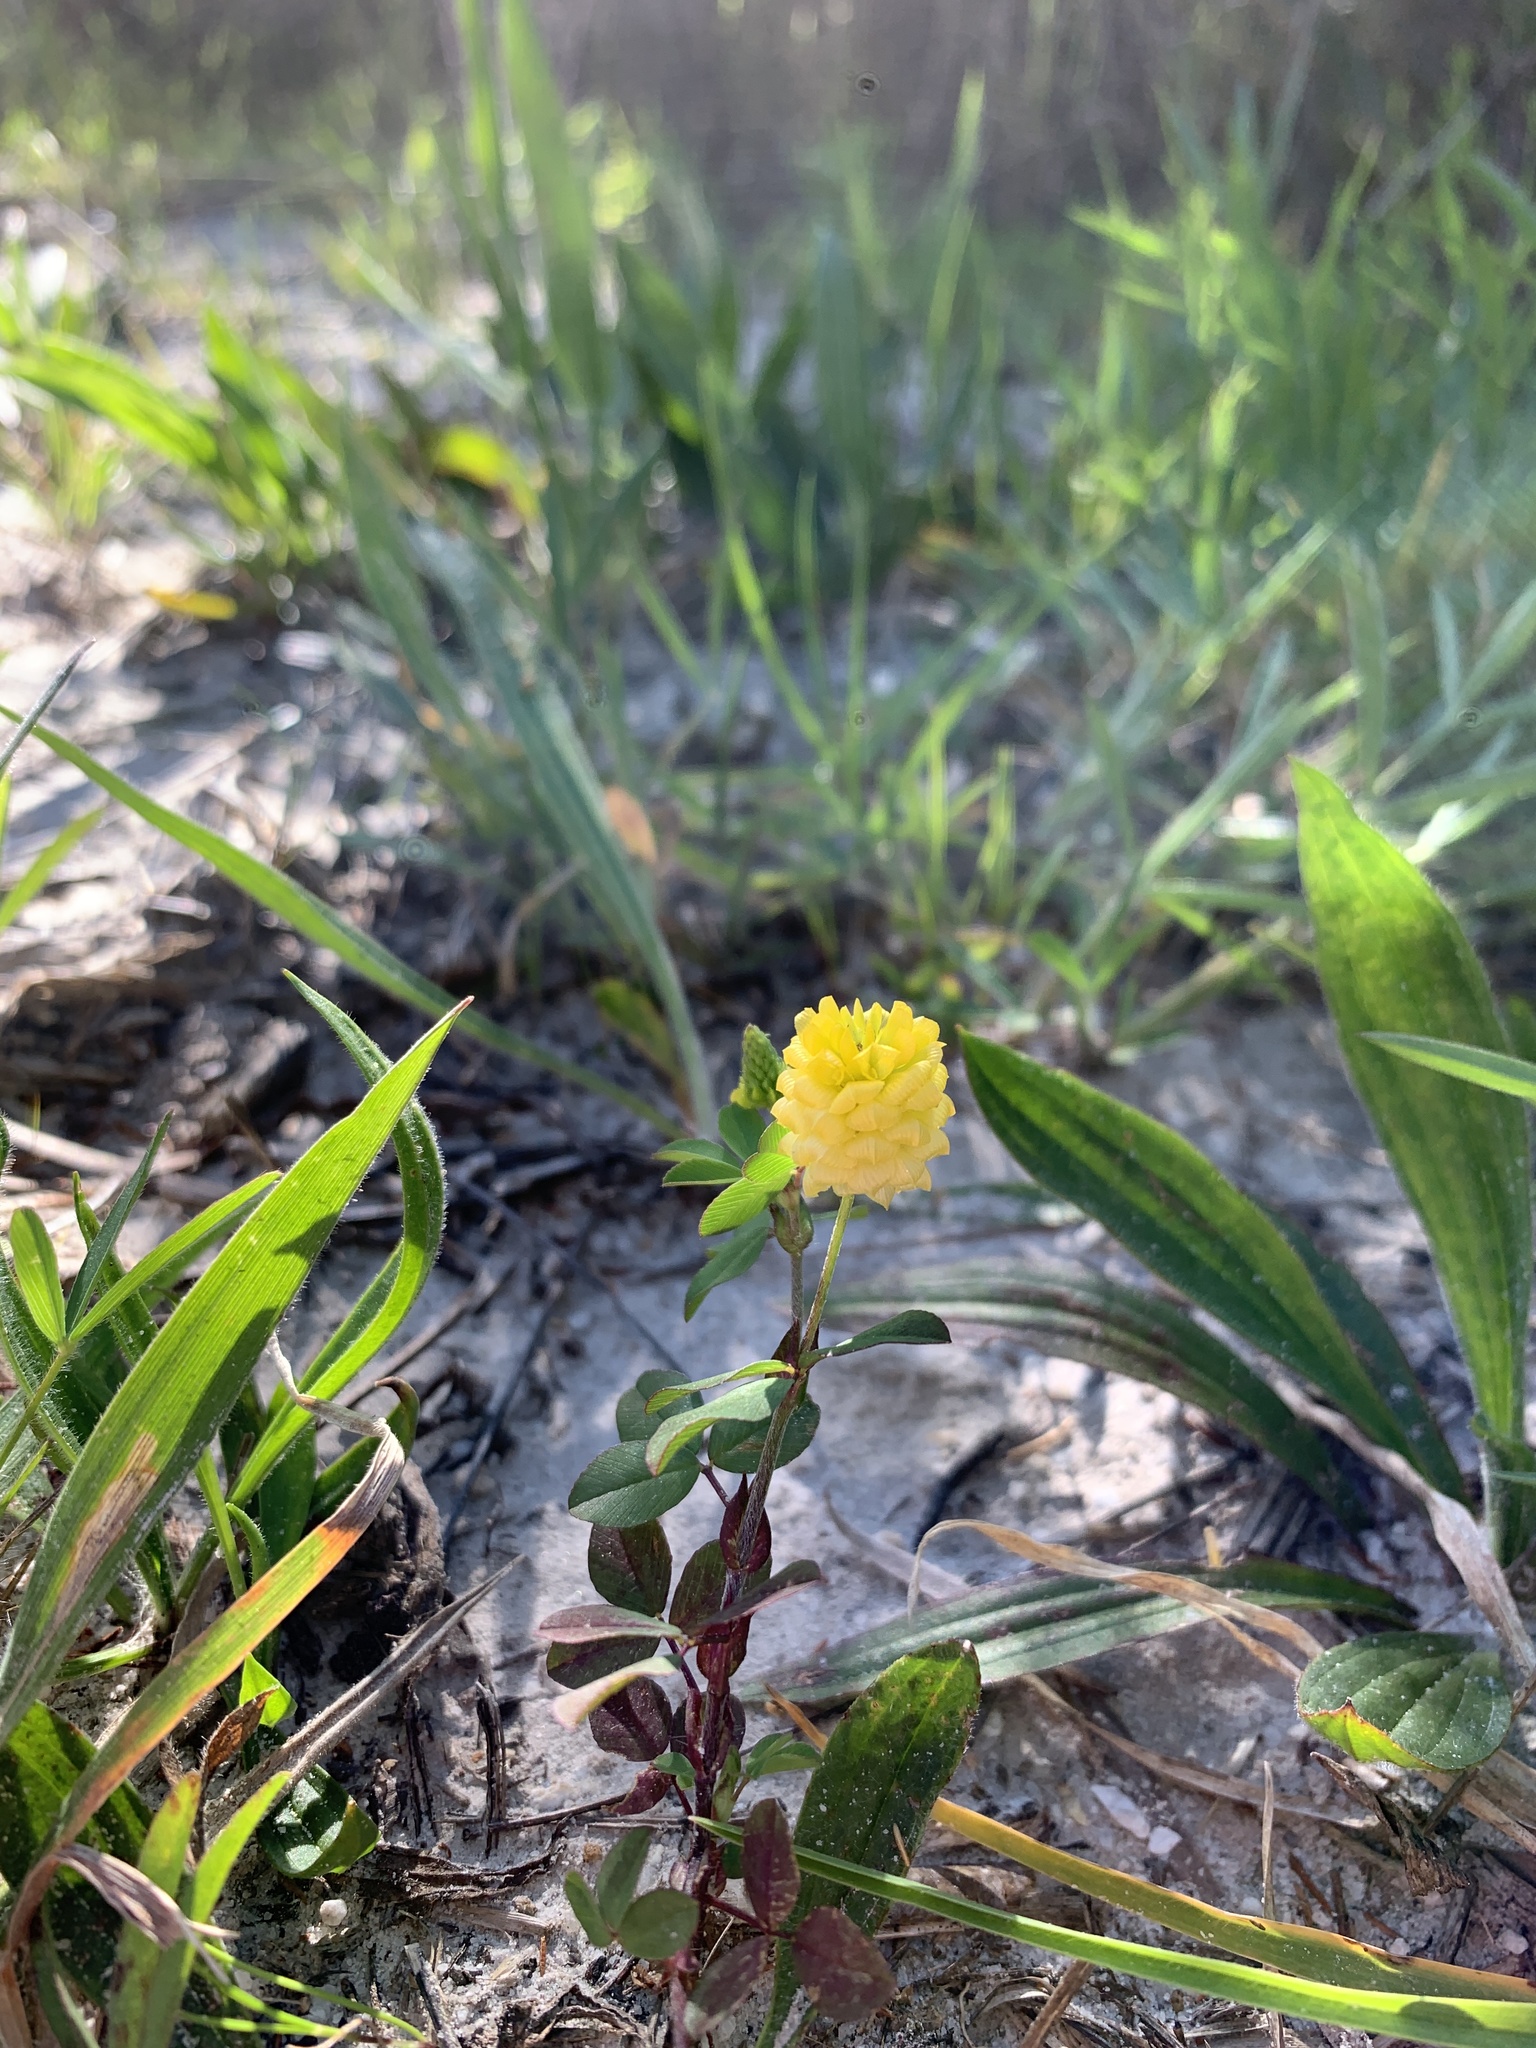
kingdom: Plantae
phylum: Tracheophyta
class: Magnoliopsida
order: Fabales
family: Fabaceae
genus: Trifolium
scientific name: Trifolium campestre
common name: Field clover
